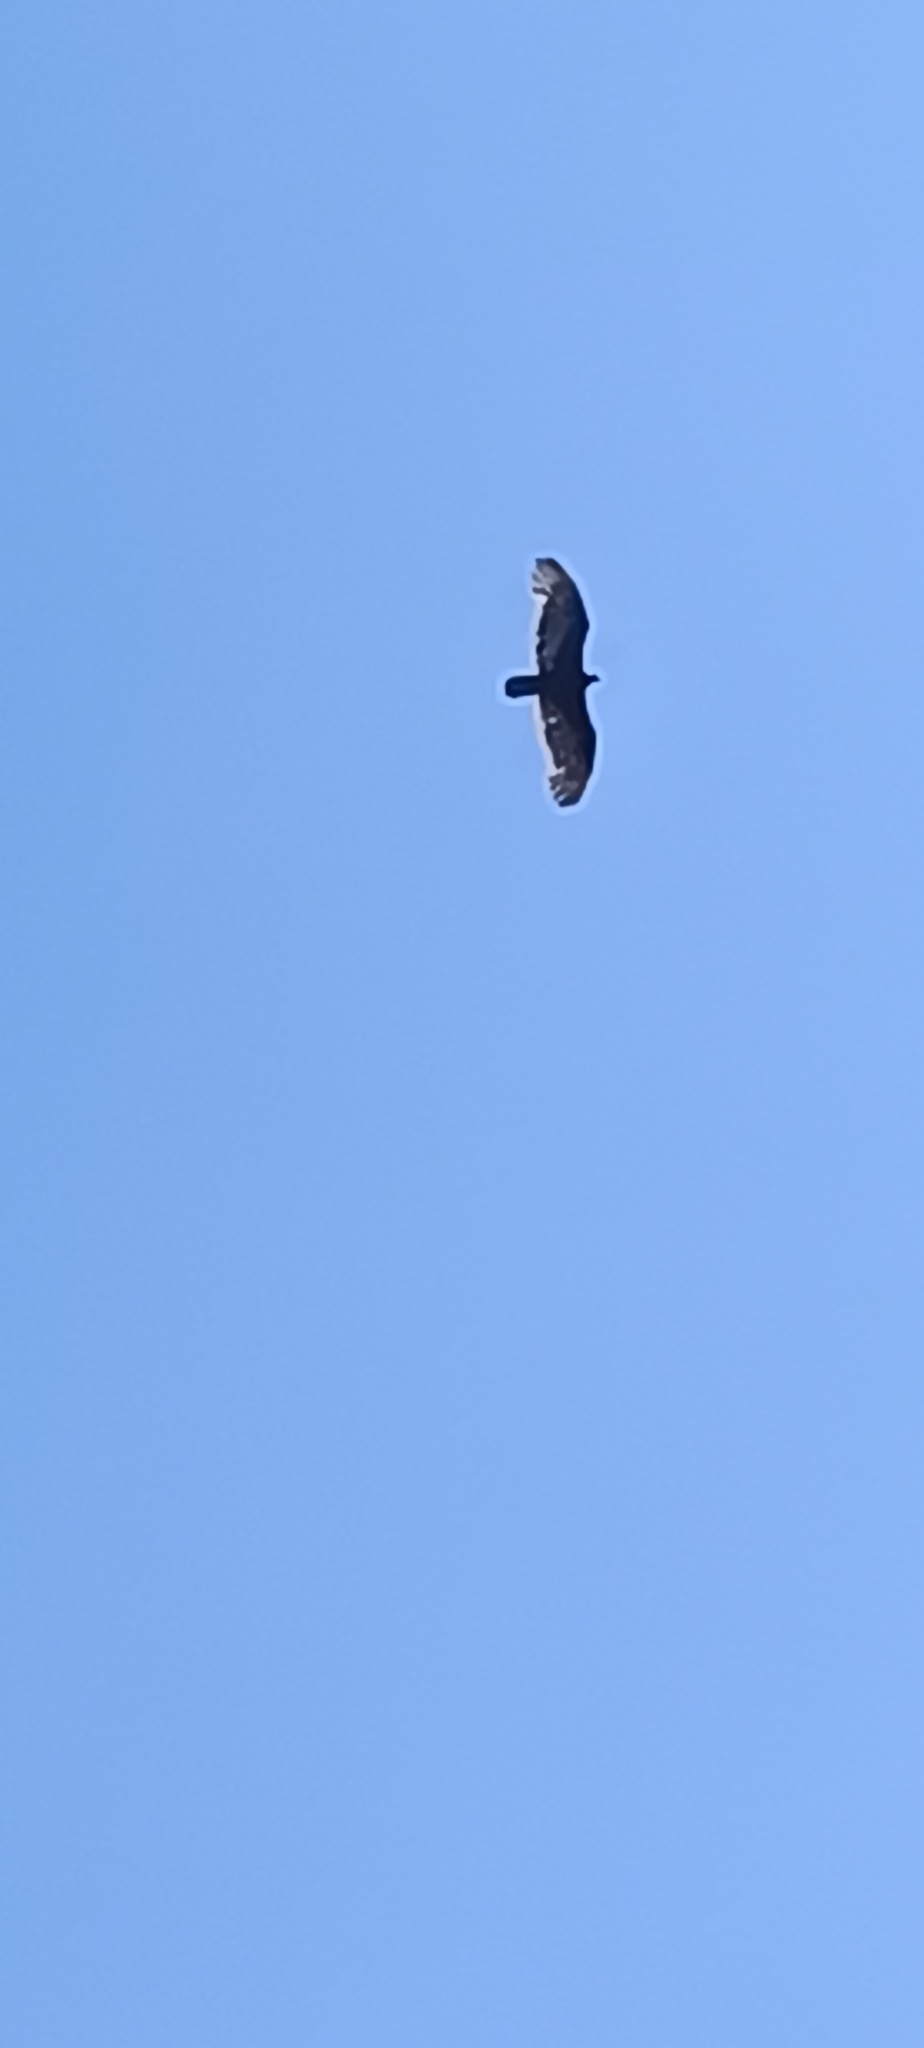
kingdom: Animalia
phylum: Chordata
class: Aves
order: Accipitriformes
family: Cathartidae
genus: Cathartes
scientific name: Cathartes aura
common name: Turkey vulture
